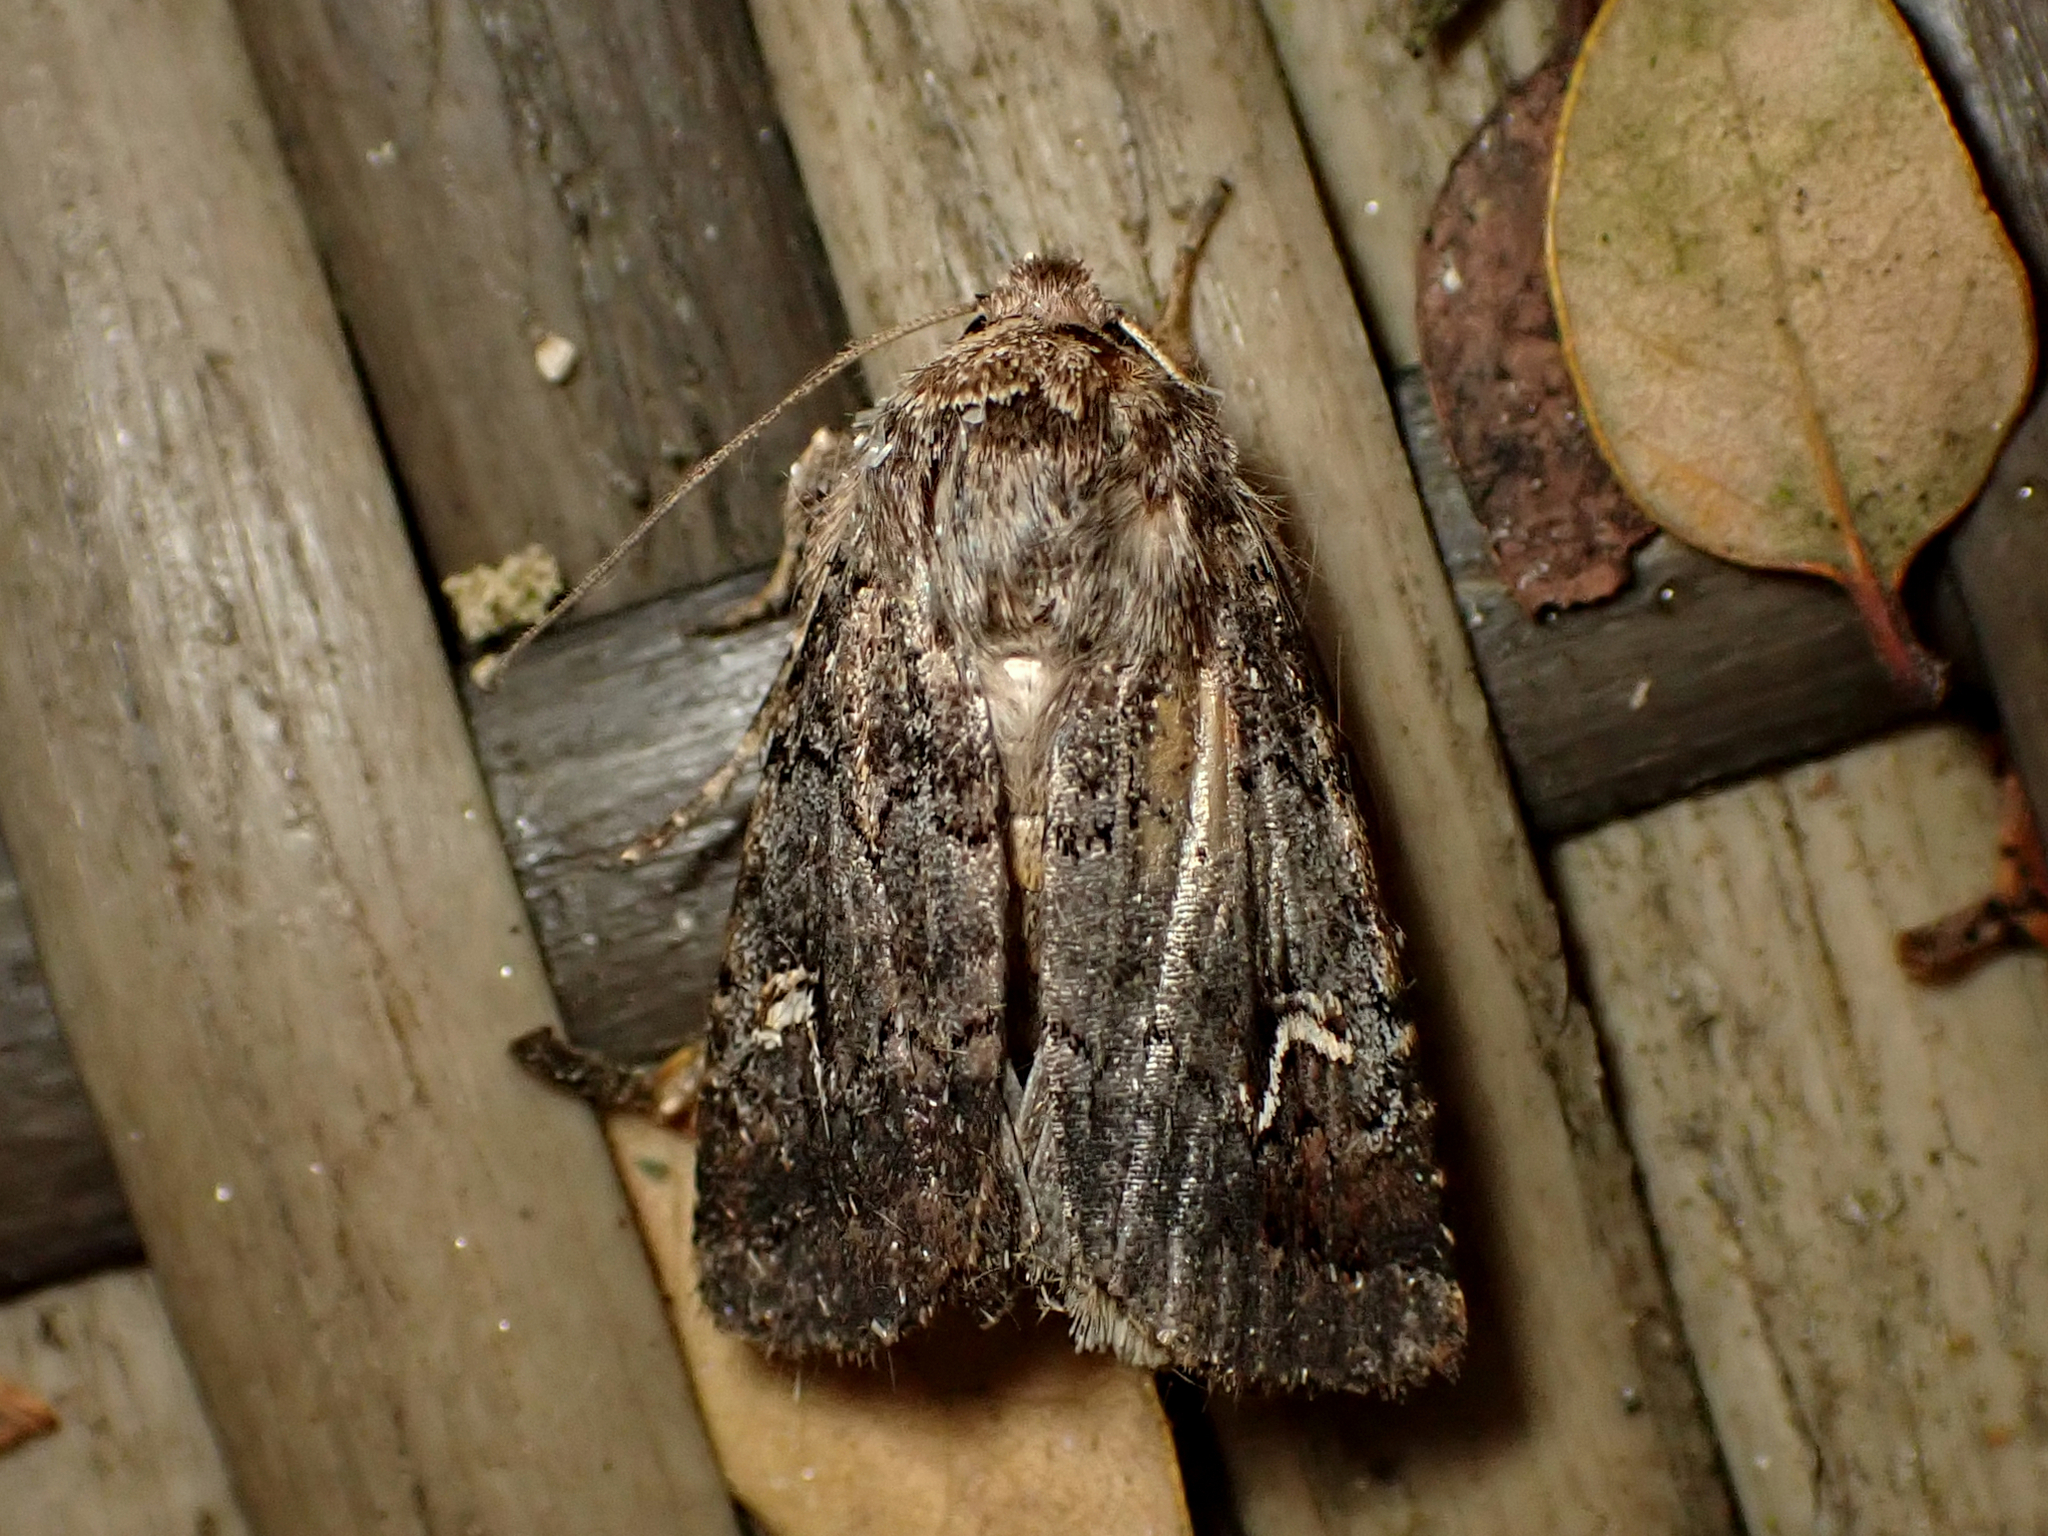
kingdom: Animalia
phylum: Arthropoda
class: Insecta
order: Lepidoptera
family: Noctuidae
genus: Proteuxoa
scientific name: Proteuxoa tetronycha
